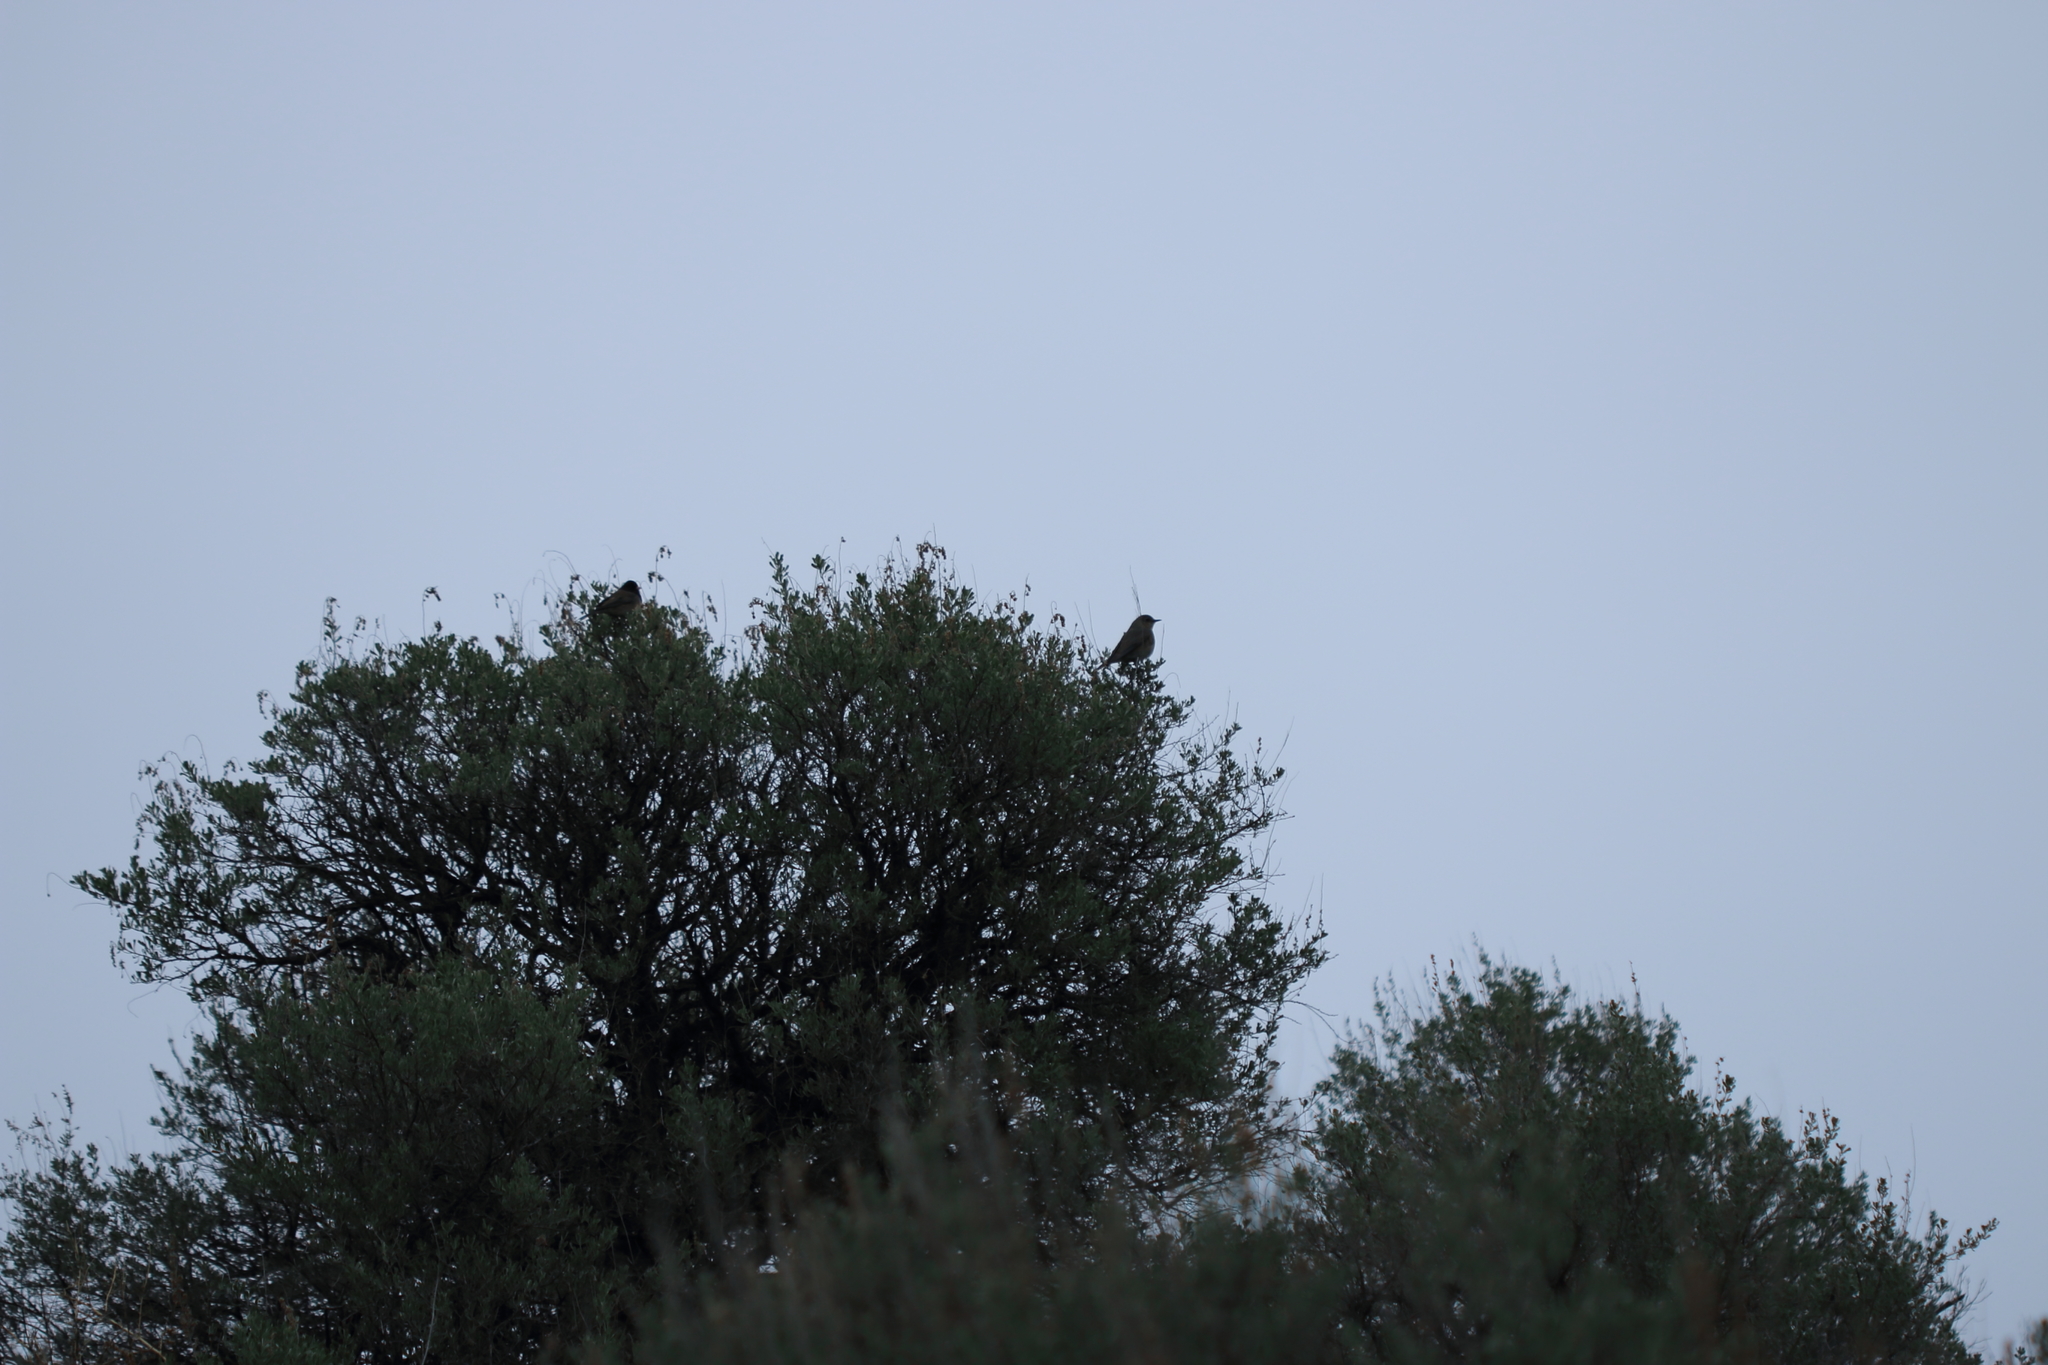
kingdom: Animalia
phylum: Chordata
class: Aves
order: Passeriformes
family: Turdidae
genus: Sialia
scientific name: Sialia currucoides
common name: Mountain bluebird
